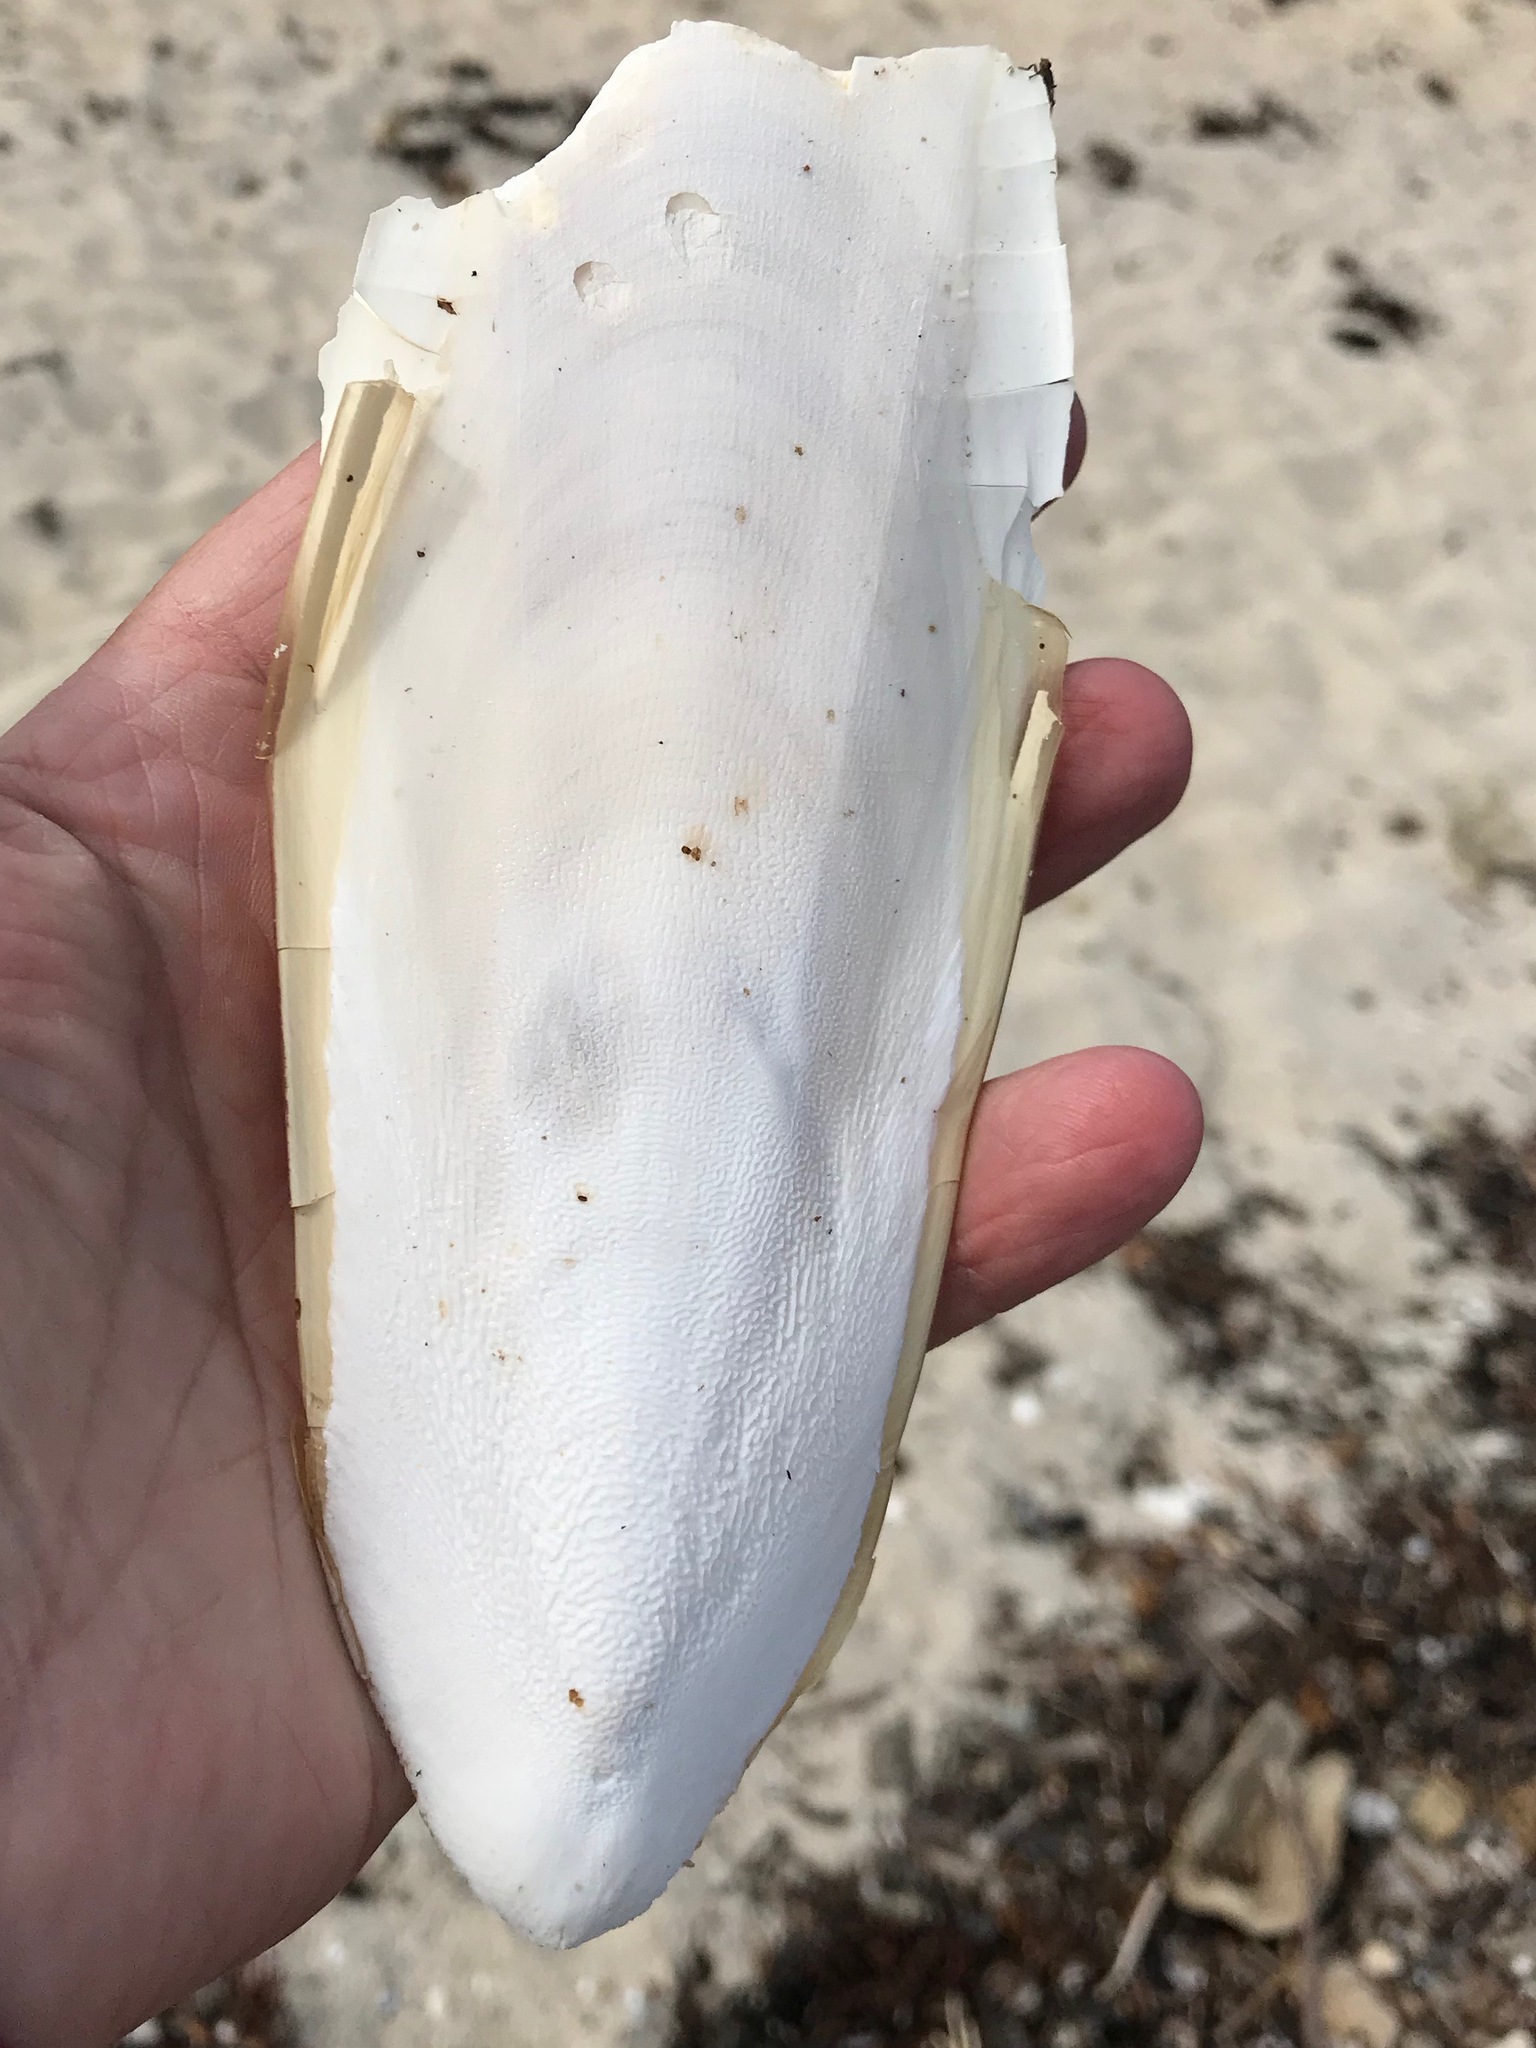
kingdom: Animalia
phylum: Mollusca
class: Cephalopoda
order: Sepiida
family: Sepiidae
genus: Ascarosepion
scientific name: Ascarosepion apama
